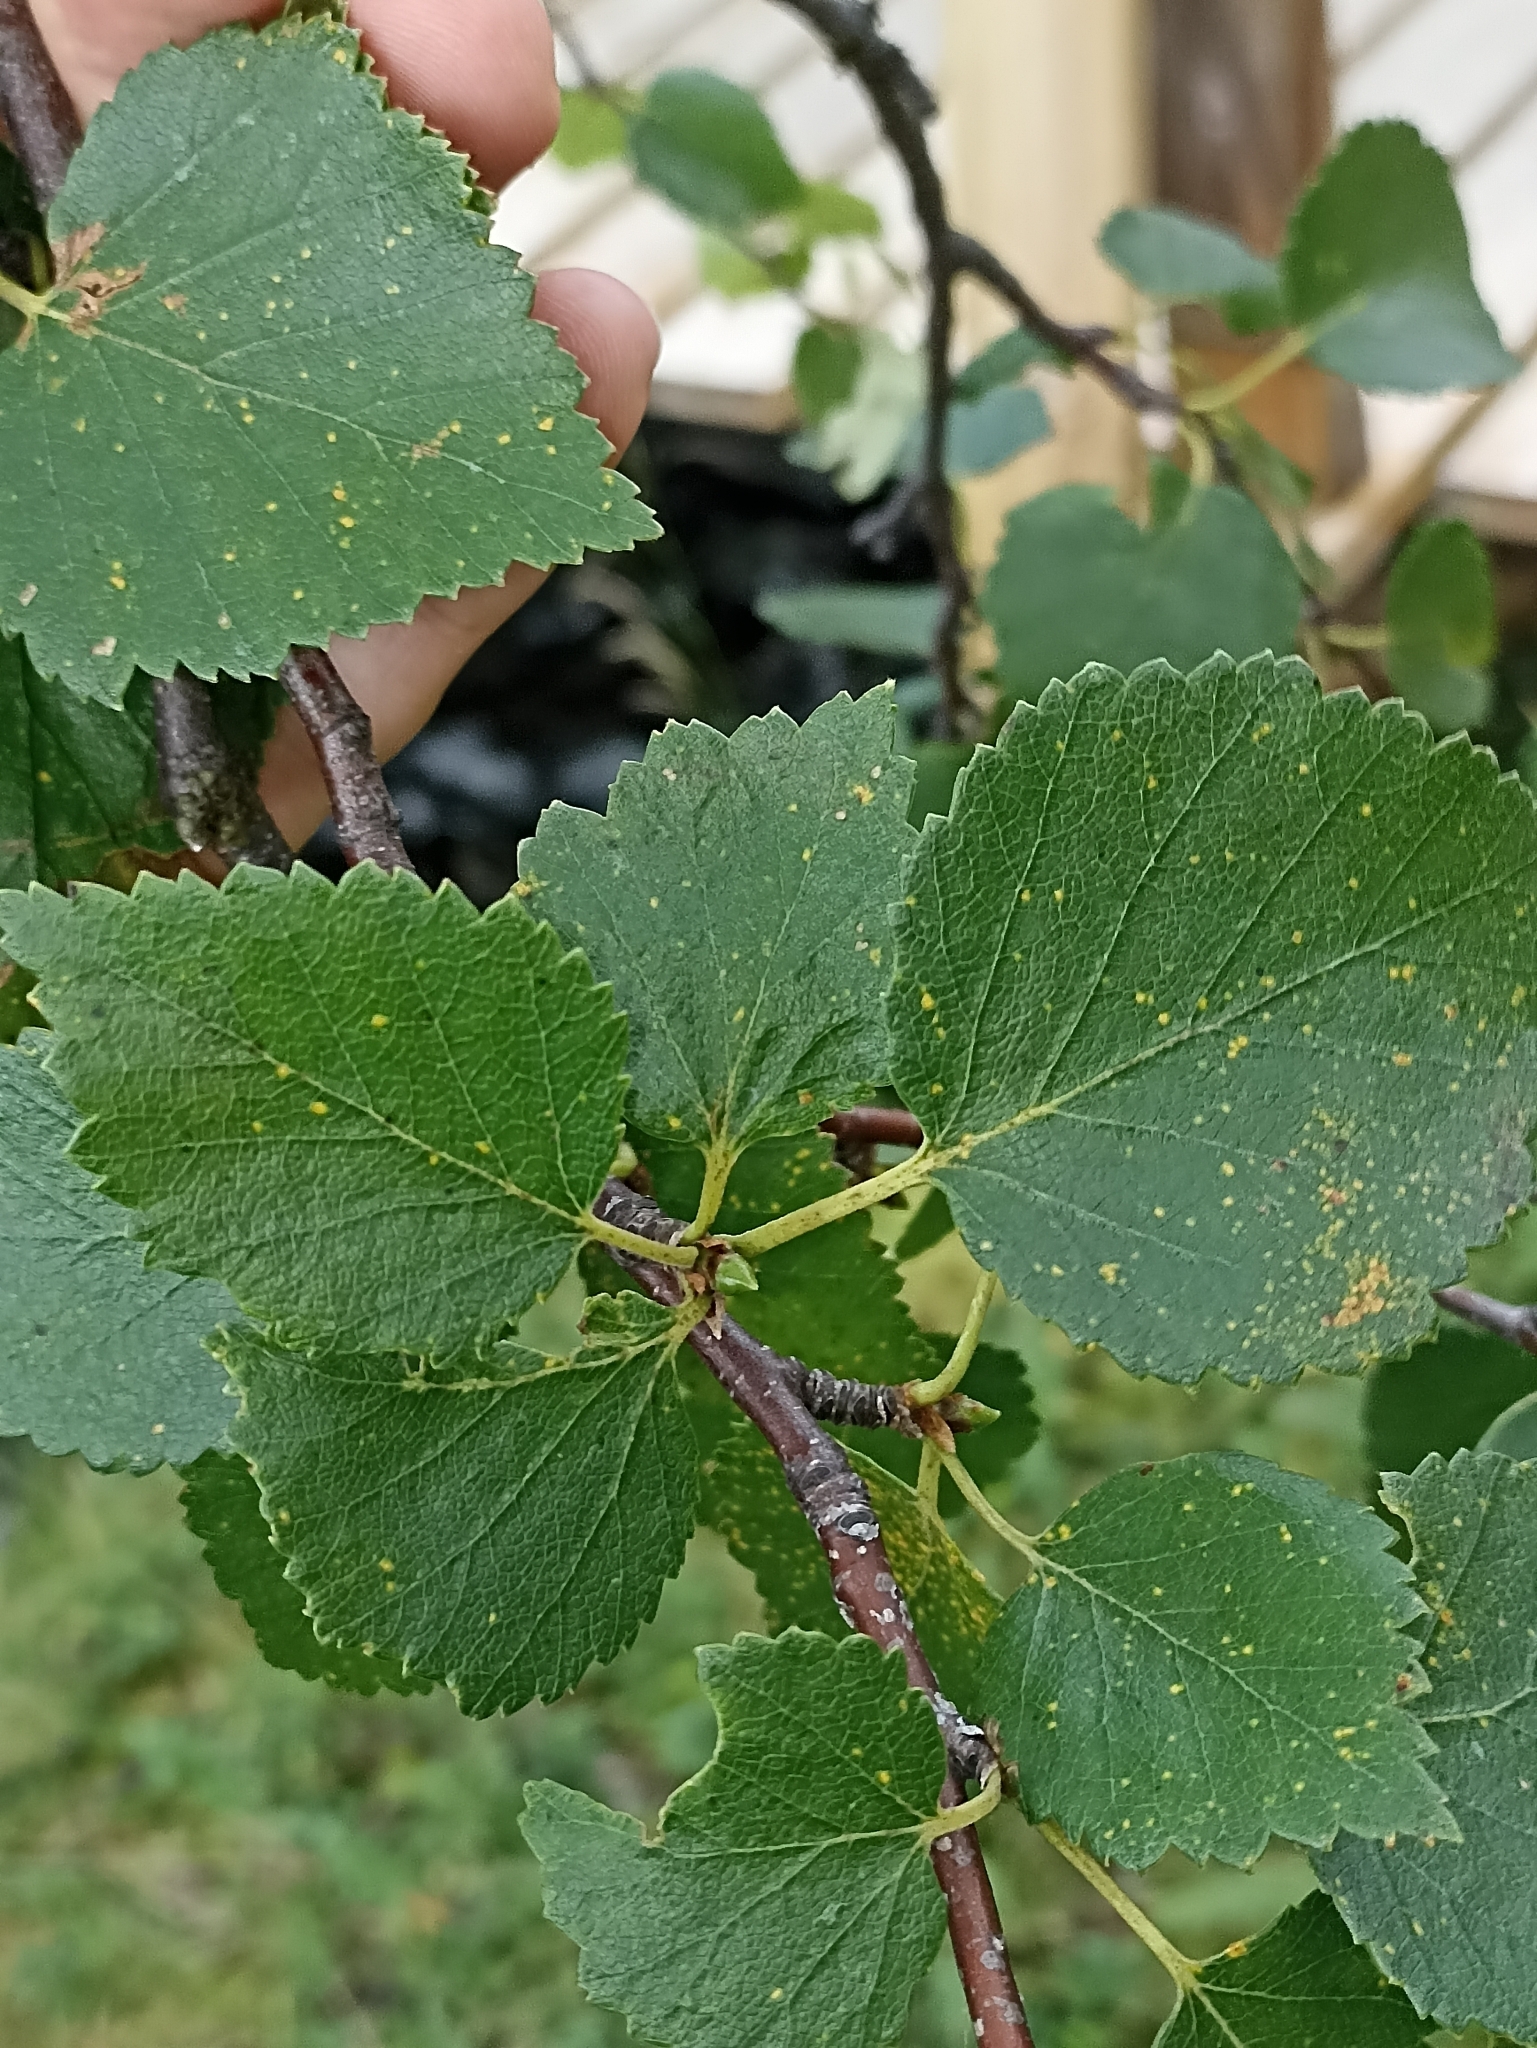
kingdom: Plantae
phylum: Tracheophyta
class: Magnoliopsida
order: Fagales
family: Betulaceae
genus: Betula
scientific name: Betula pubescens
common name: Downy birch
